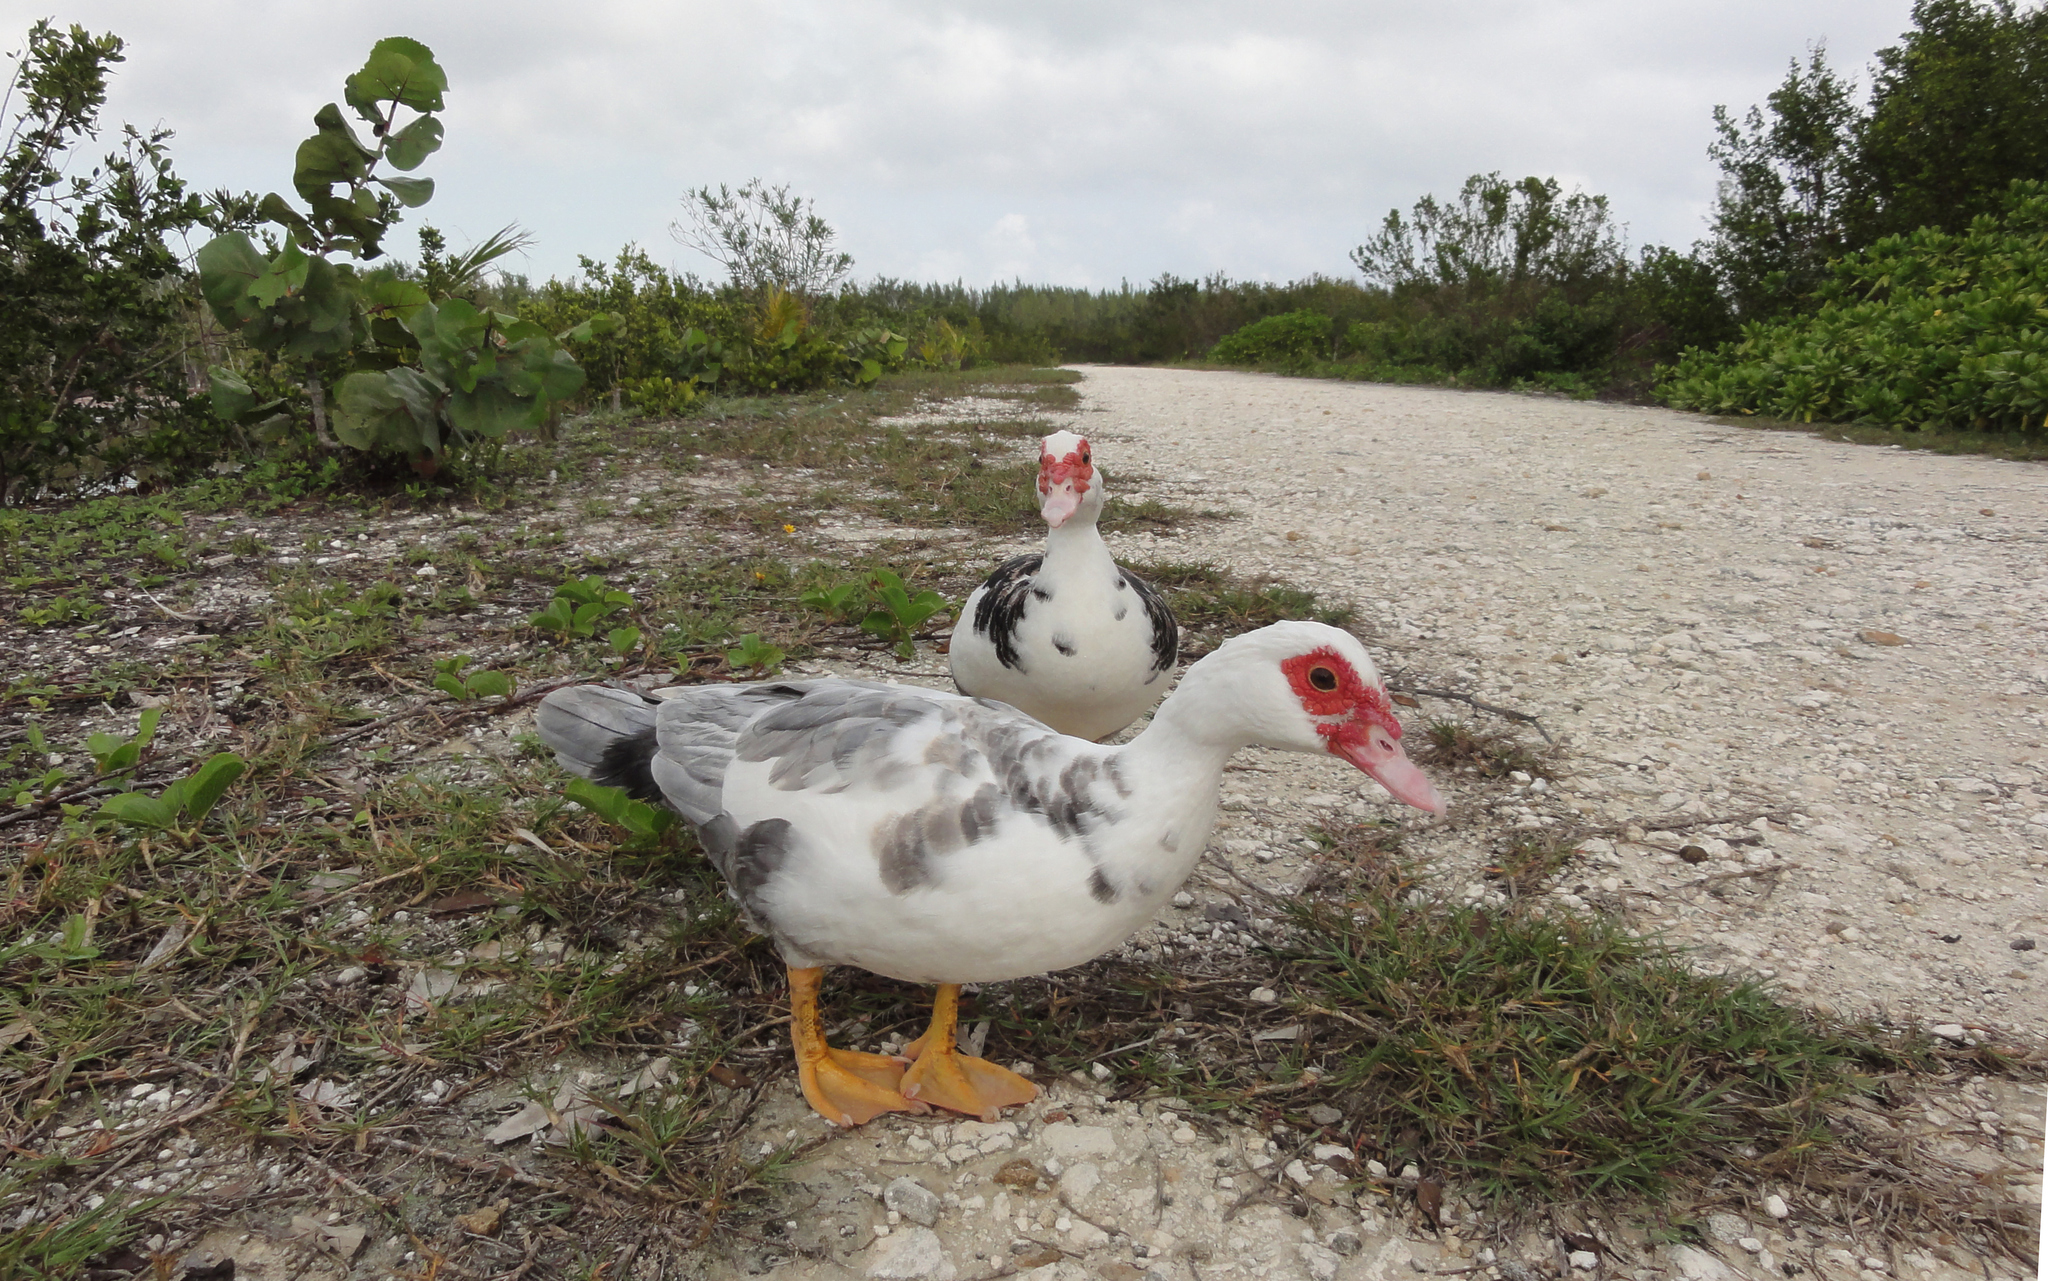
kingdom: Animalia
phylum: Chordata
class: Aves
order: Anseriformes
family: Anatidae
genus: Cairina
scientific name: Cairina moschata
